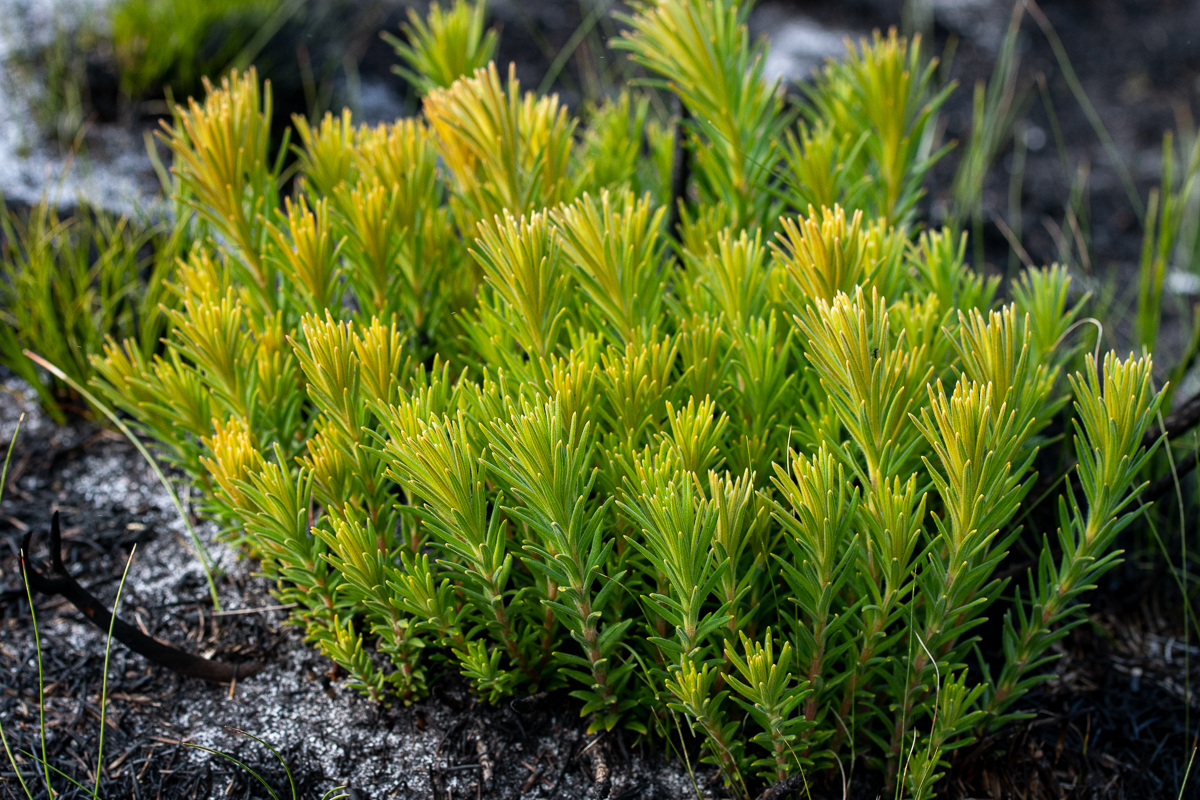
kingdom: Plantae
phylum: Tracheophyta
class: Magnoliopsida
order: Lamiales
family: Stilbaceae
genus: Retzia
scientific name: Retzia capensis
